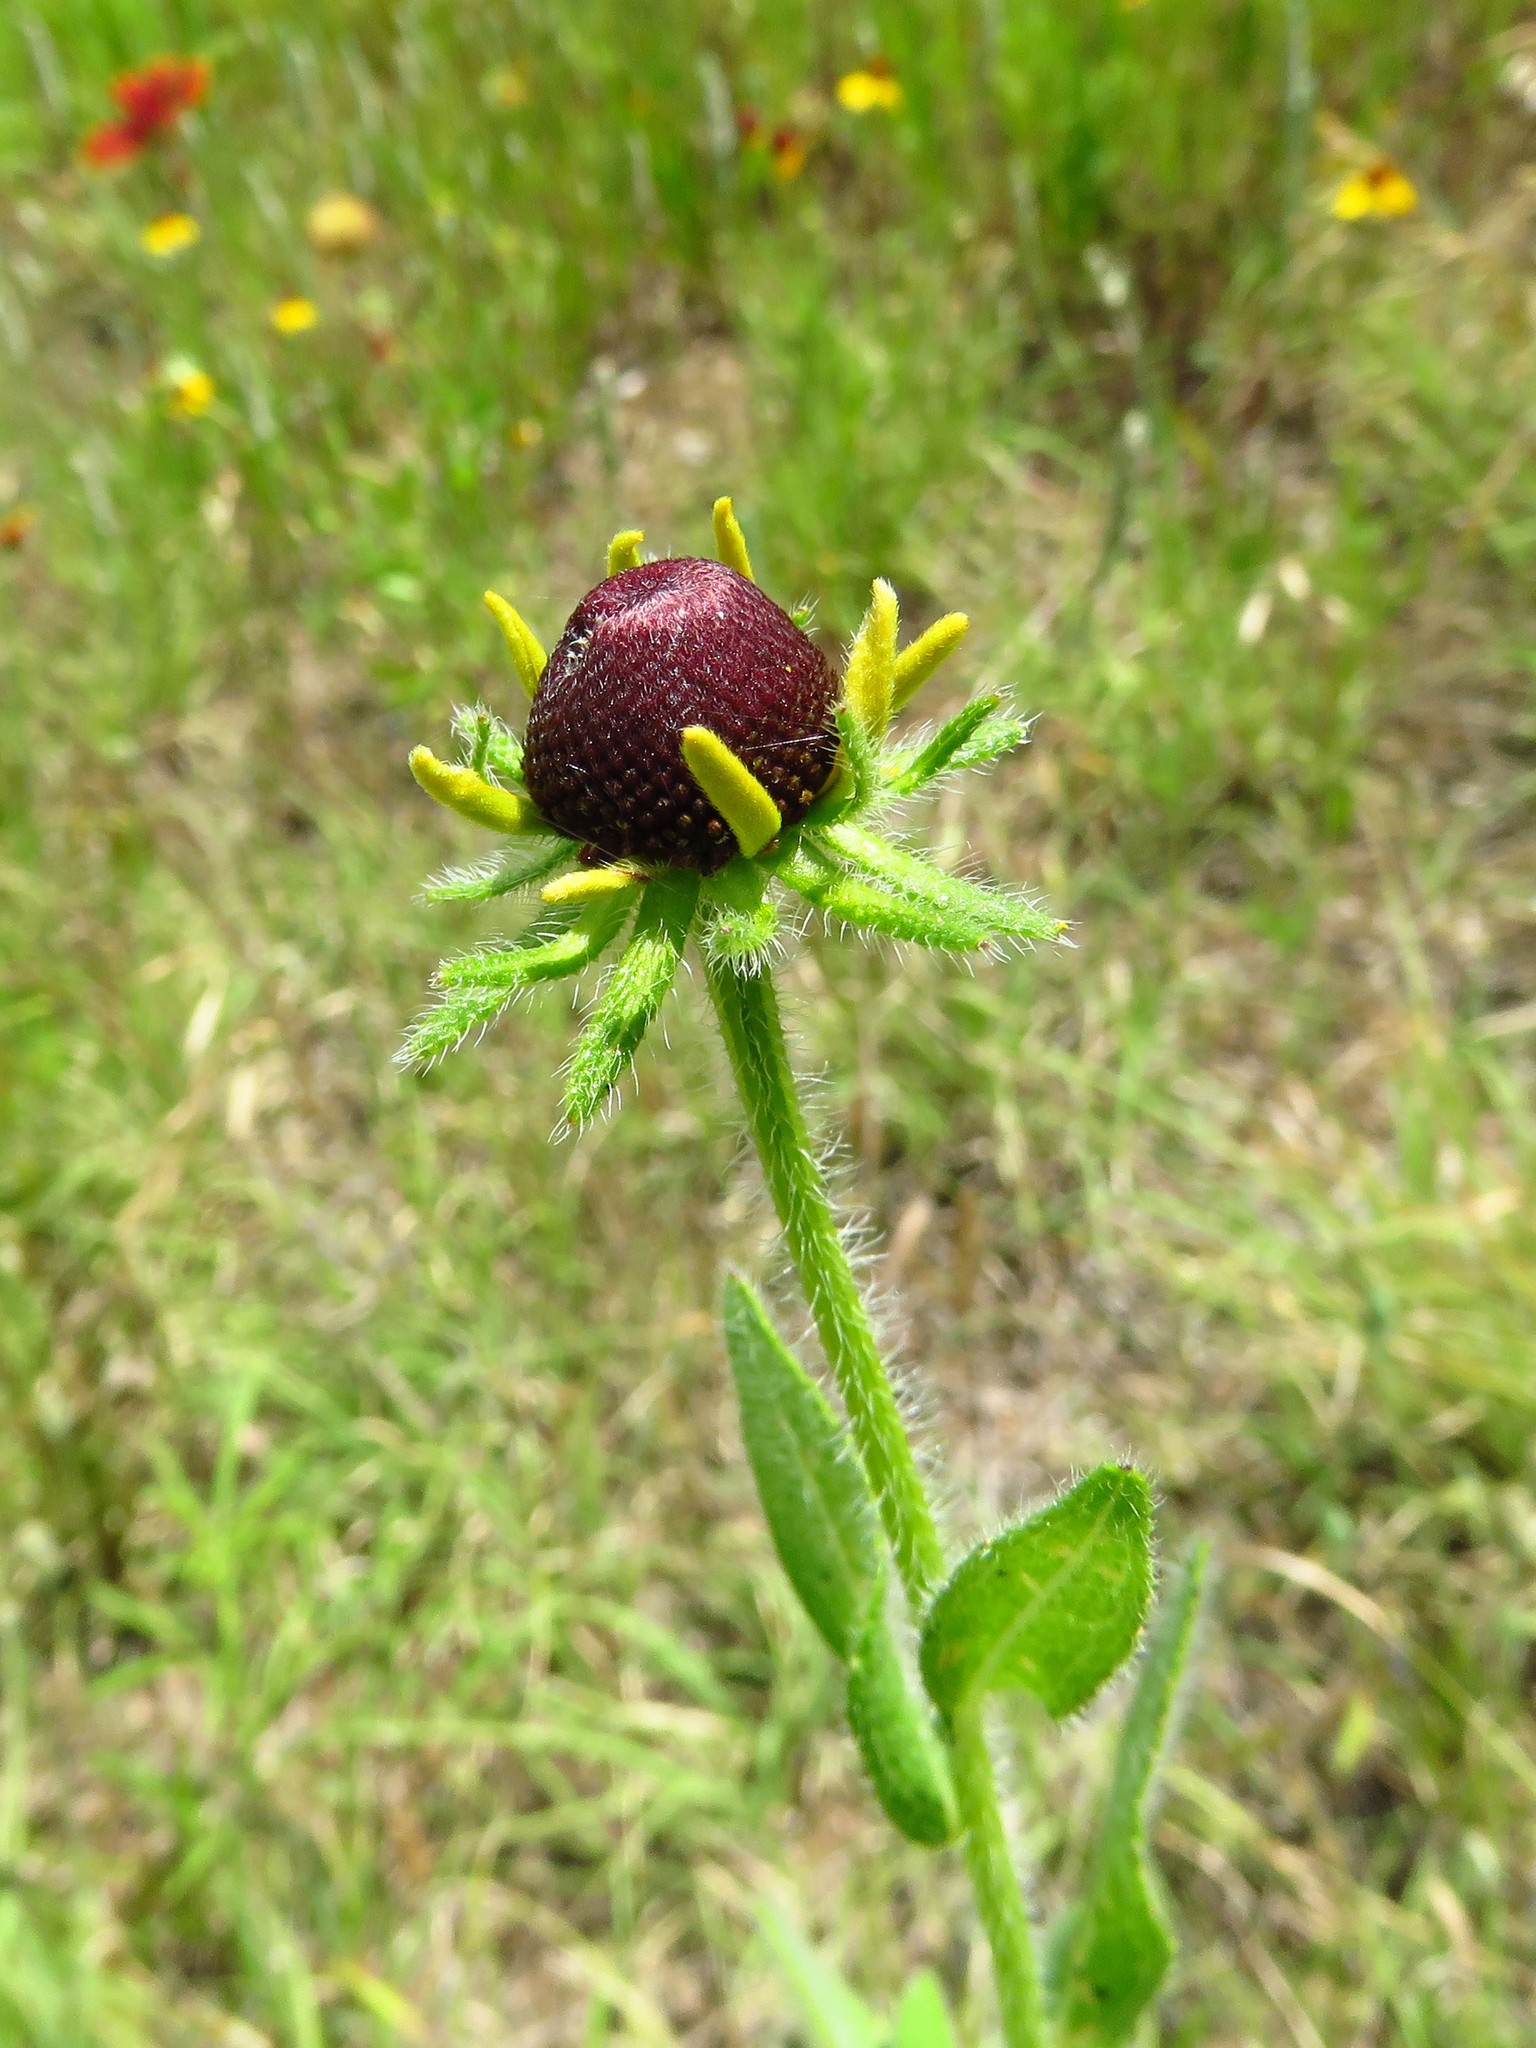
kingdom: Plantae
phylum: Tracheophyta
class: Magnoliopsida
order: Asterales
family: Asteraceae
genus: Rudbeckia
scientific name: Rudbeckia hirta
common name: Black-eyed-susan
